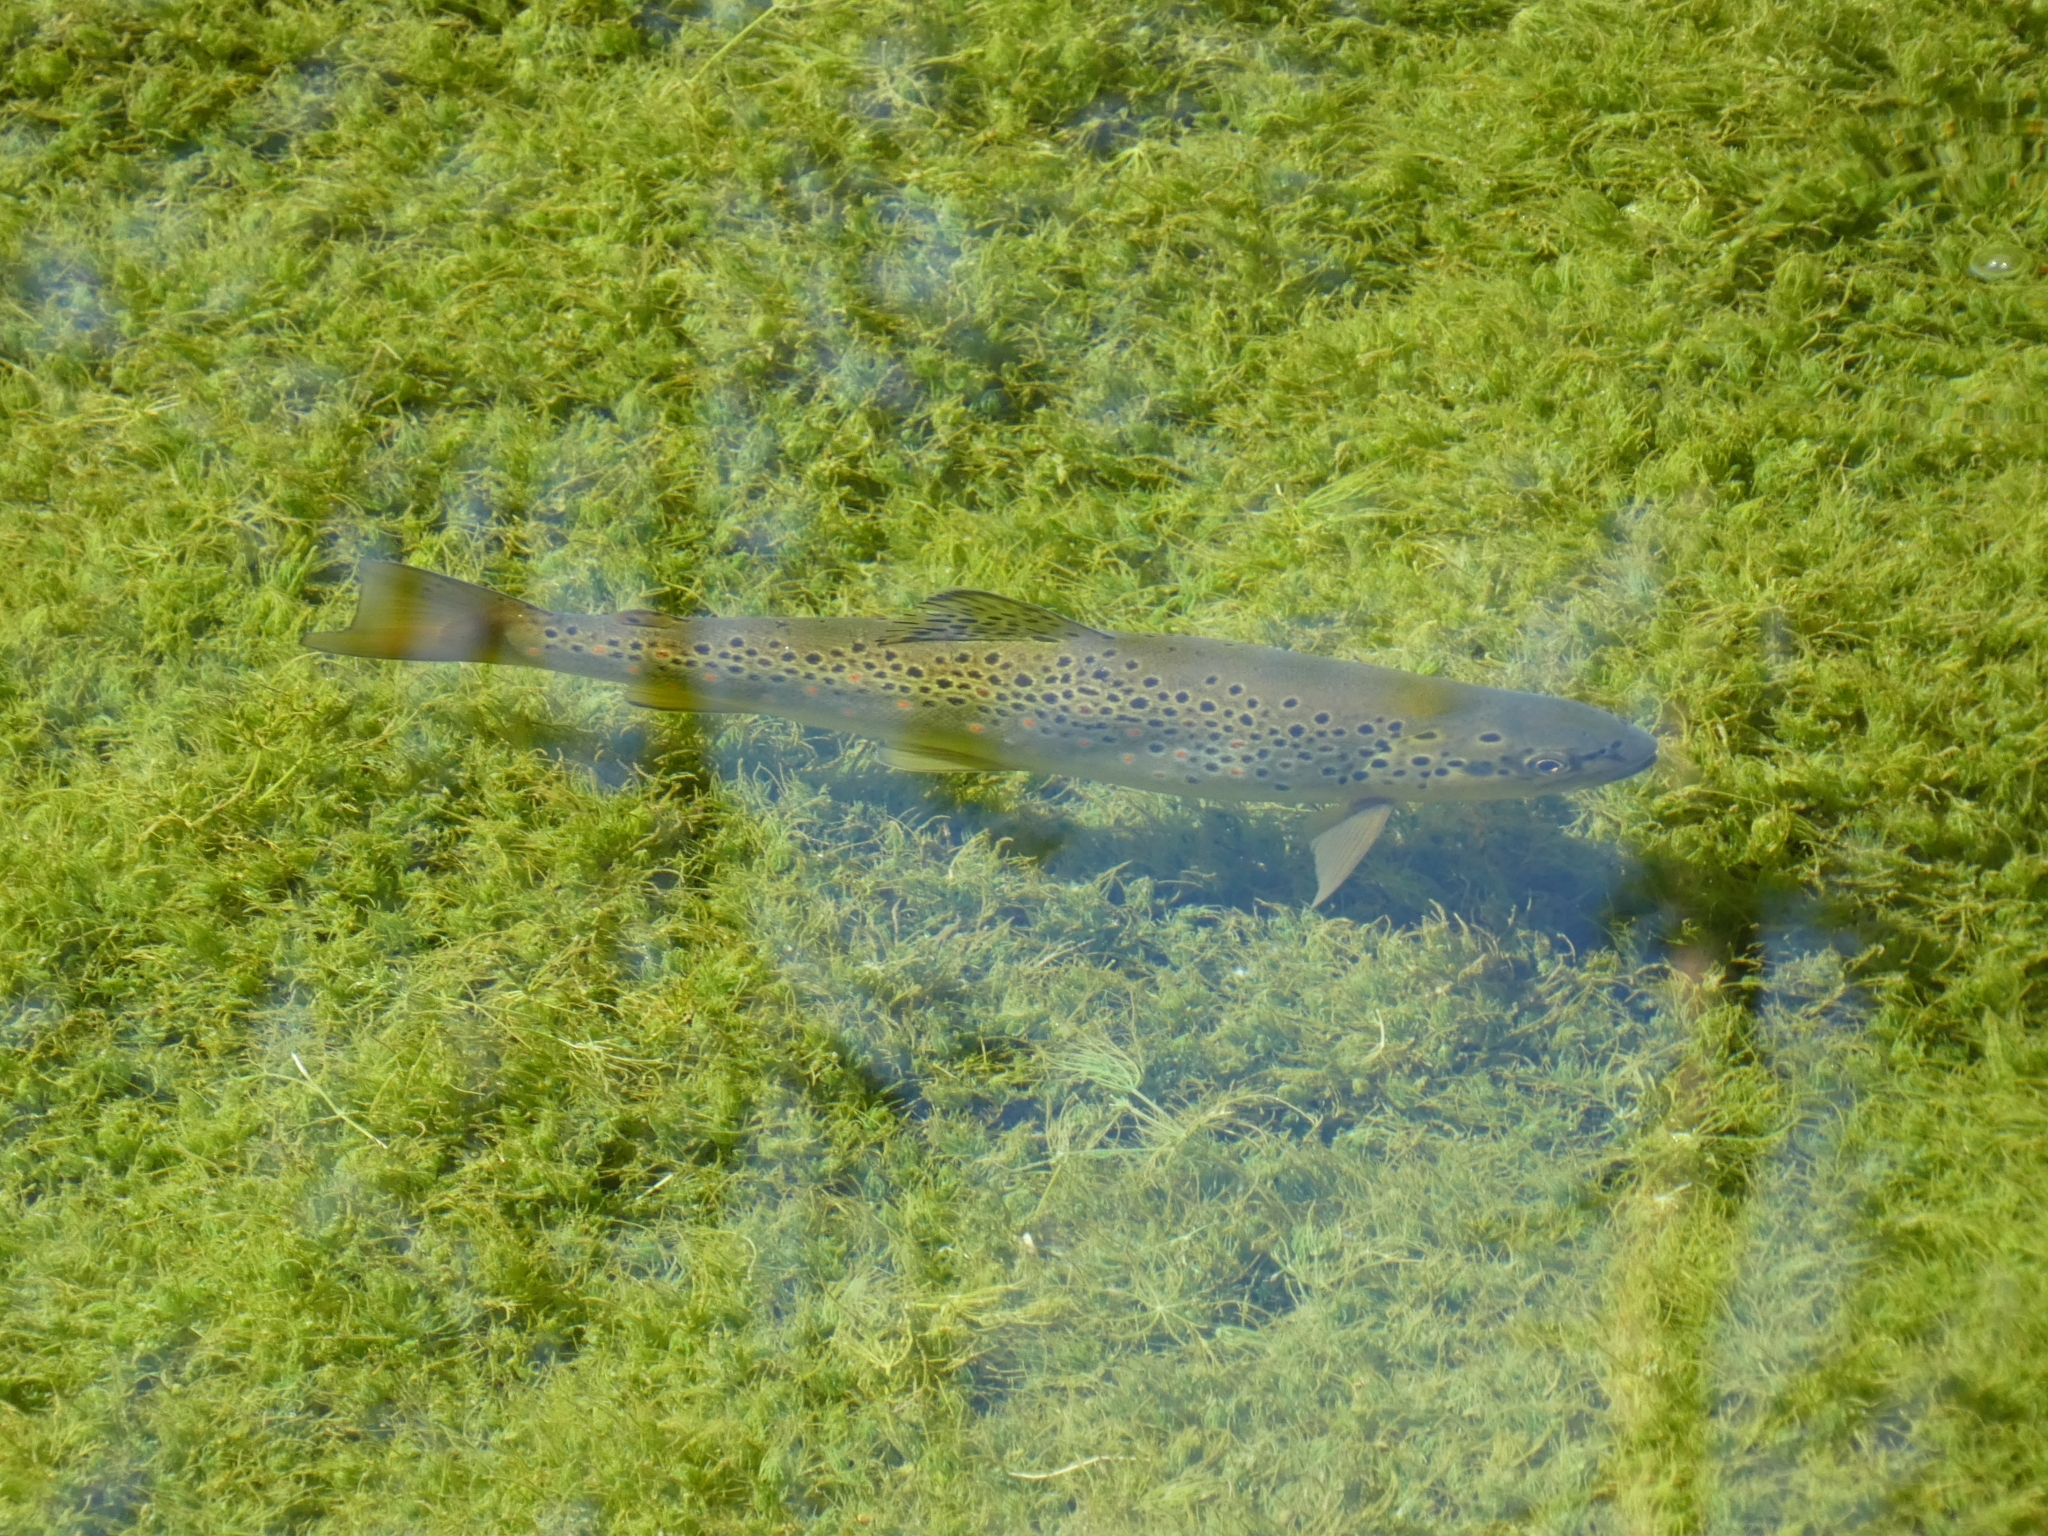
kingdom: Animalia
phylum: Chordata
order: Salmoniformes
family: Salmonidae
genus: Salmo
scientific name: Salmo trutta
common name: Brown trout
